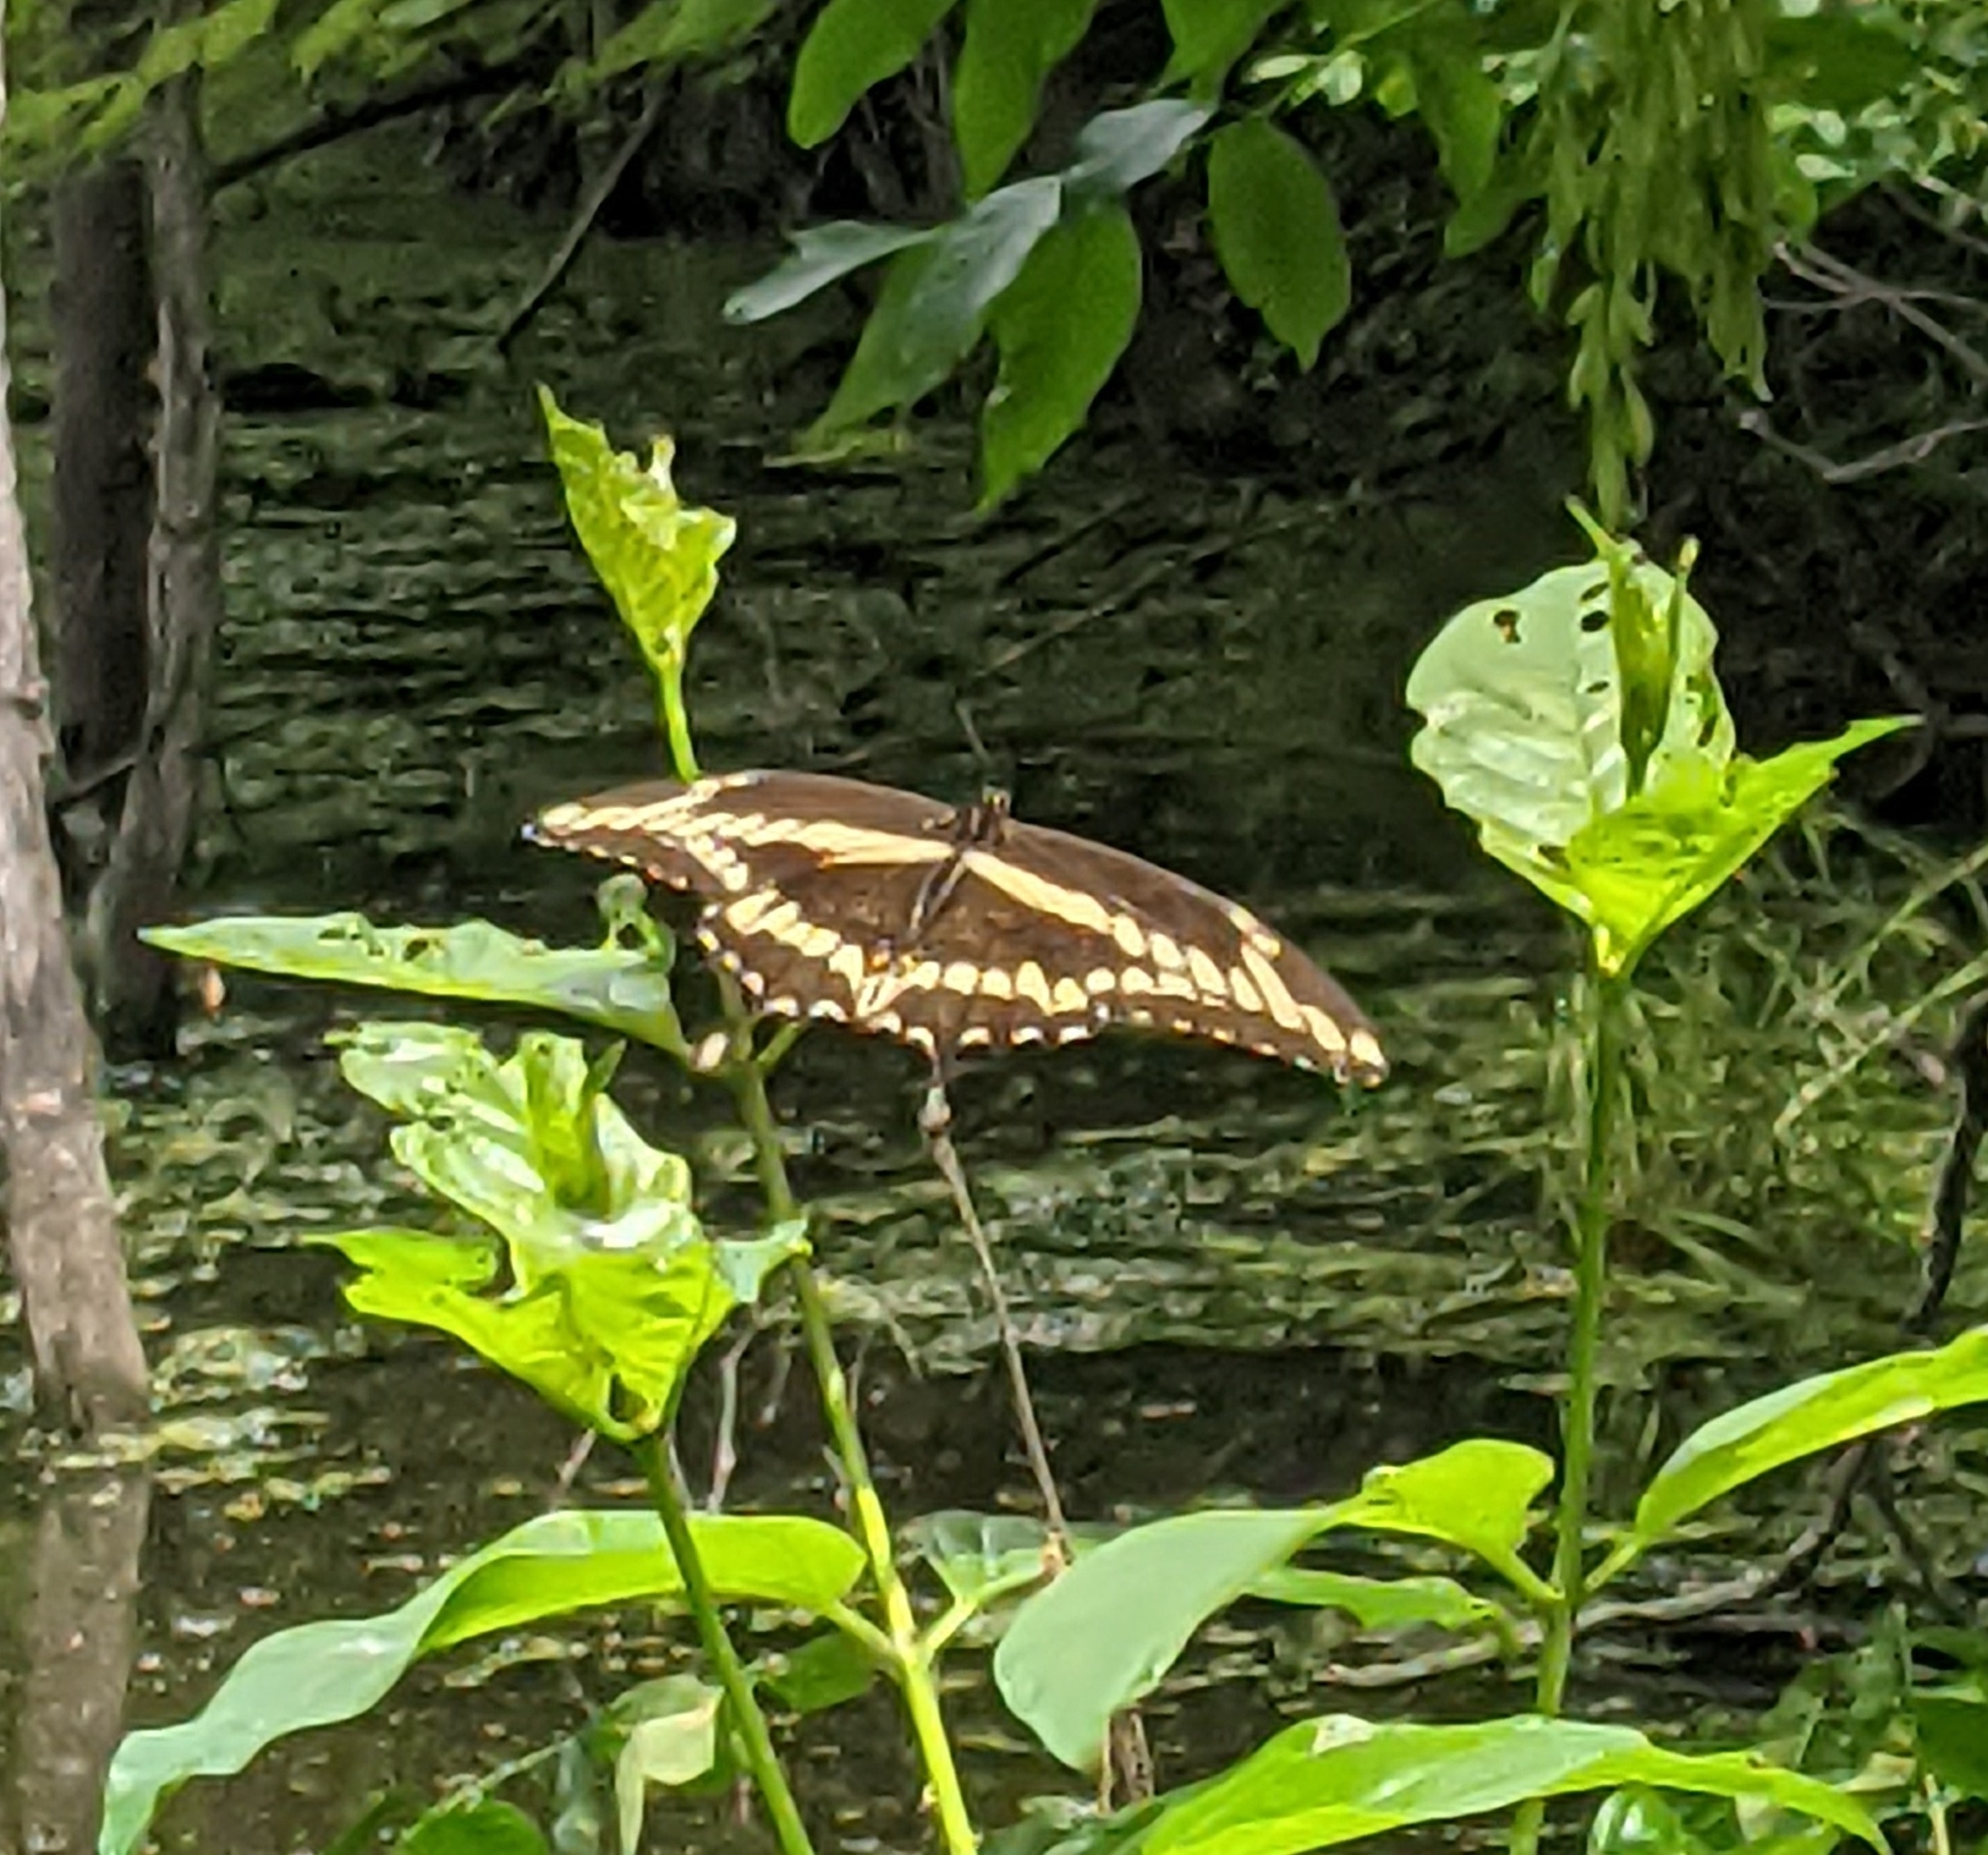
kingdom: Animalia
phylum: Arthropoda
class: Insecta
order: Lepidoptera
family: Papilionidae
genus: Papilio
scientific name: Papilio cresphontes
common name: Giant swallowtail
